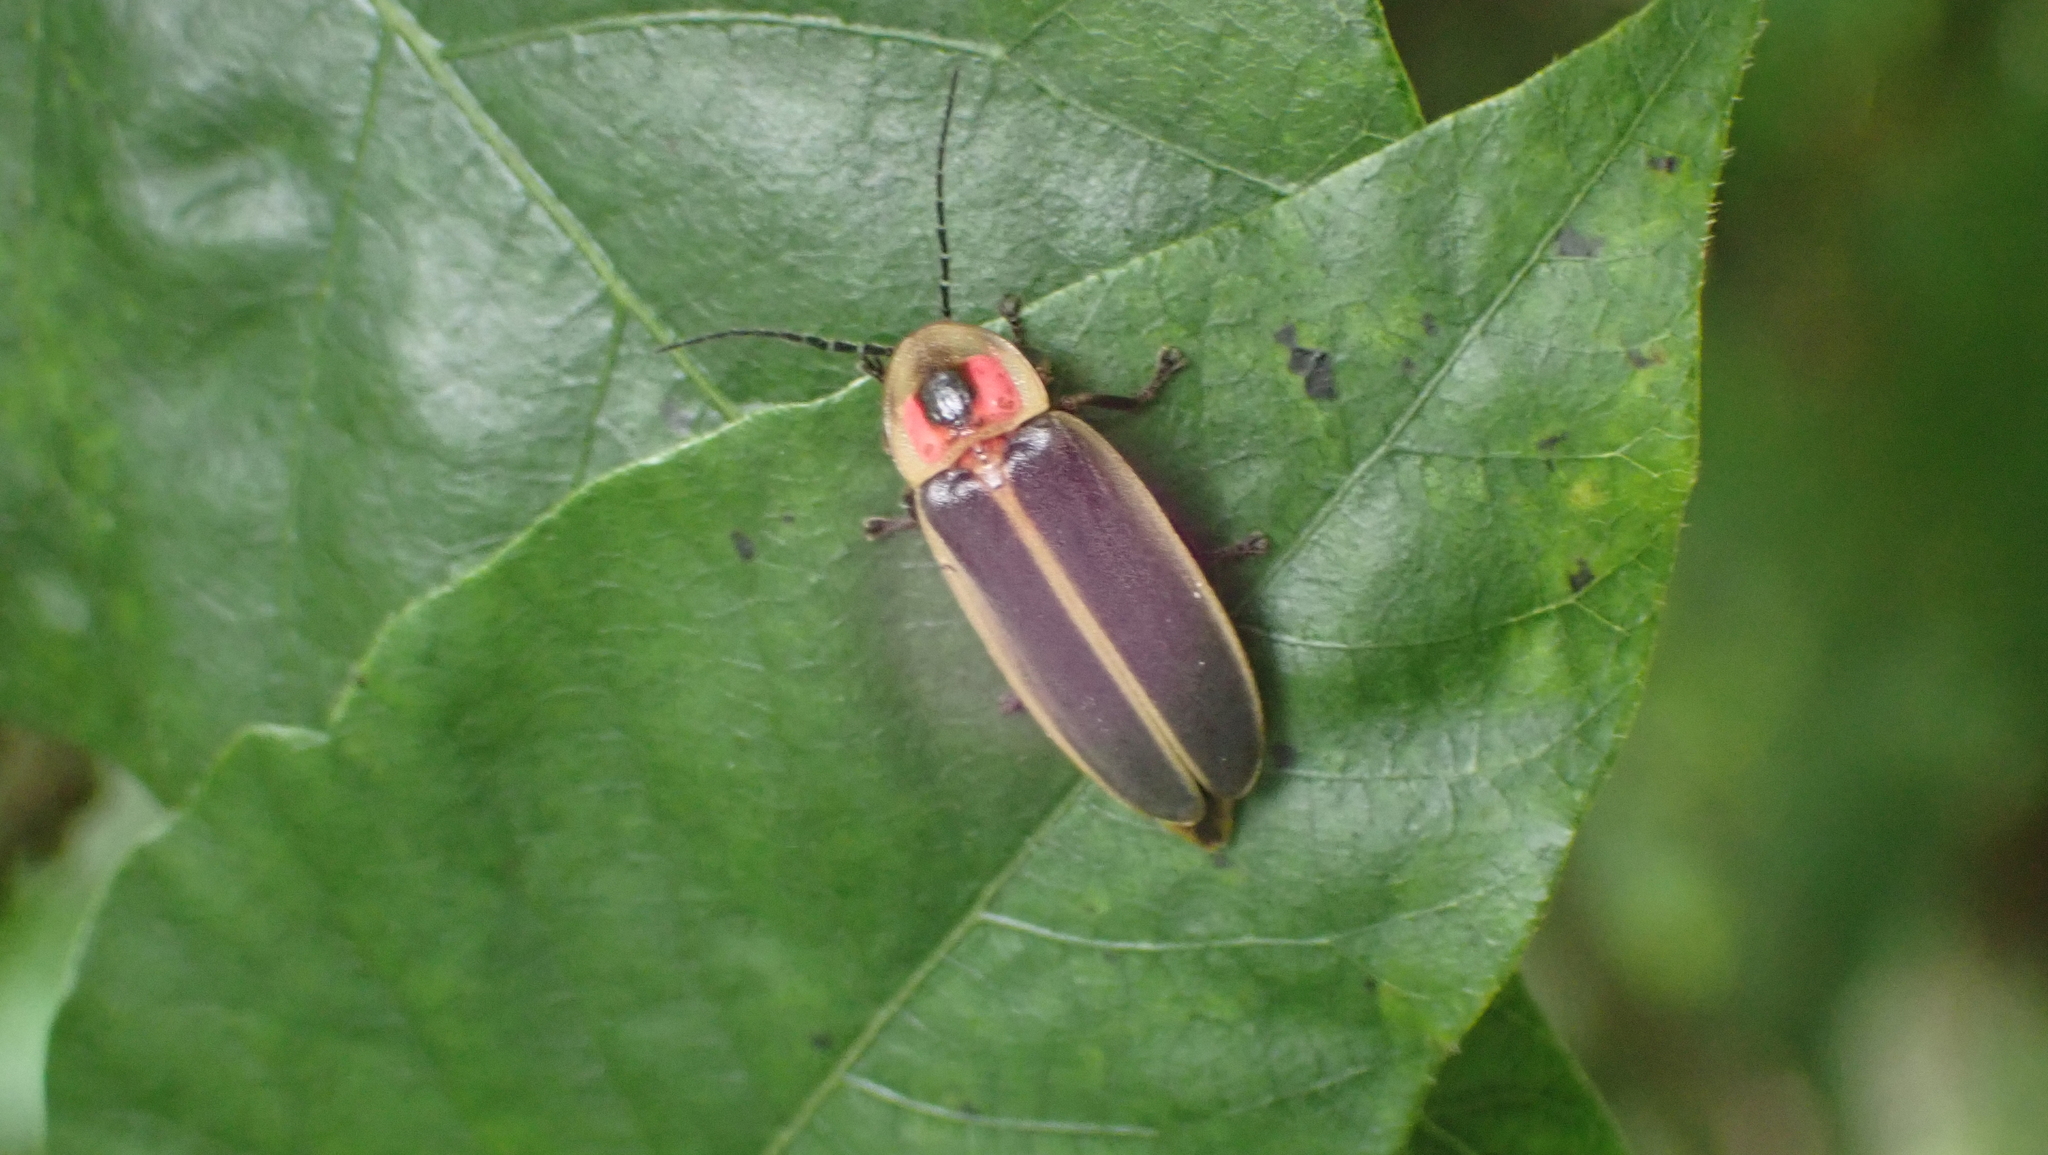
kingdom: Animalia
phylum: Arthropoda
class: Insecta
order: Coleoptera
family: Lampyridae
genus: Photinus
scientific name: Photinus pyralis
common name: Big dipper firefly
